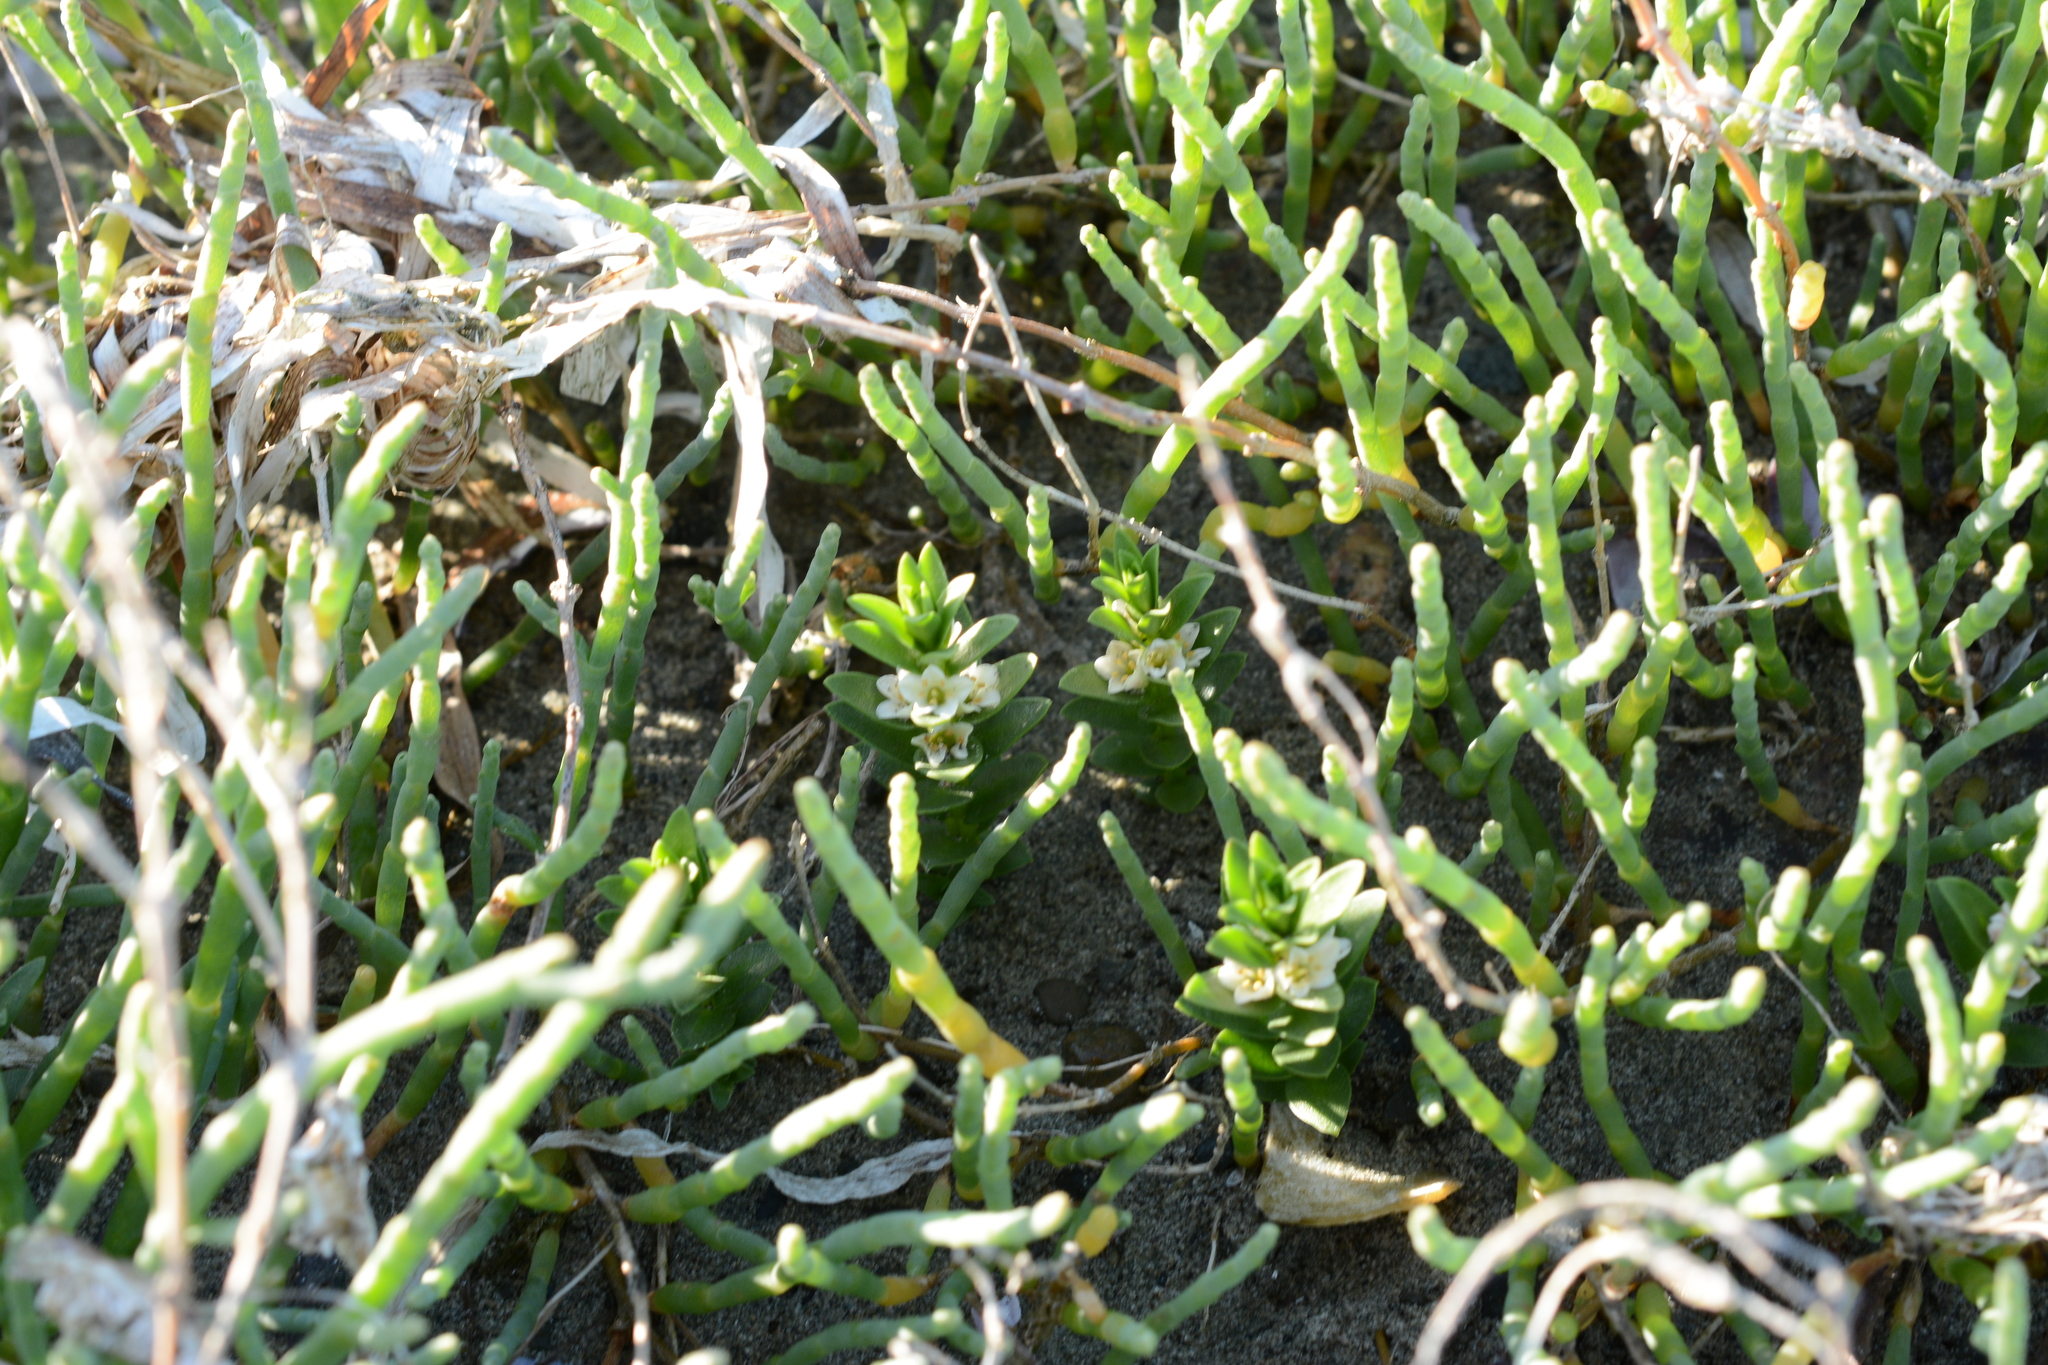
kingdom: Plantae
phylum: Tracheophyta
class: Magnoliopsida
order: Ericales
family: Primulaceae
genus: Lysimachia
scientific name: Lysimachia maritima
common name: Sea milkwort
